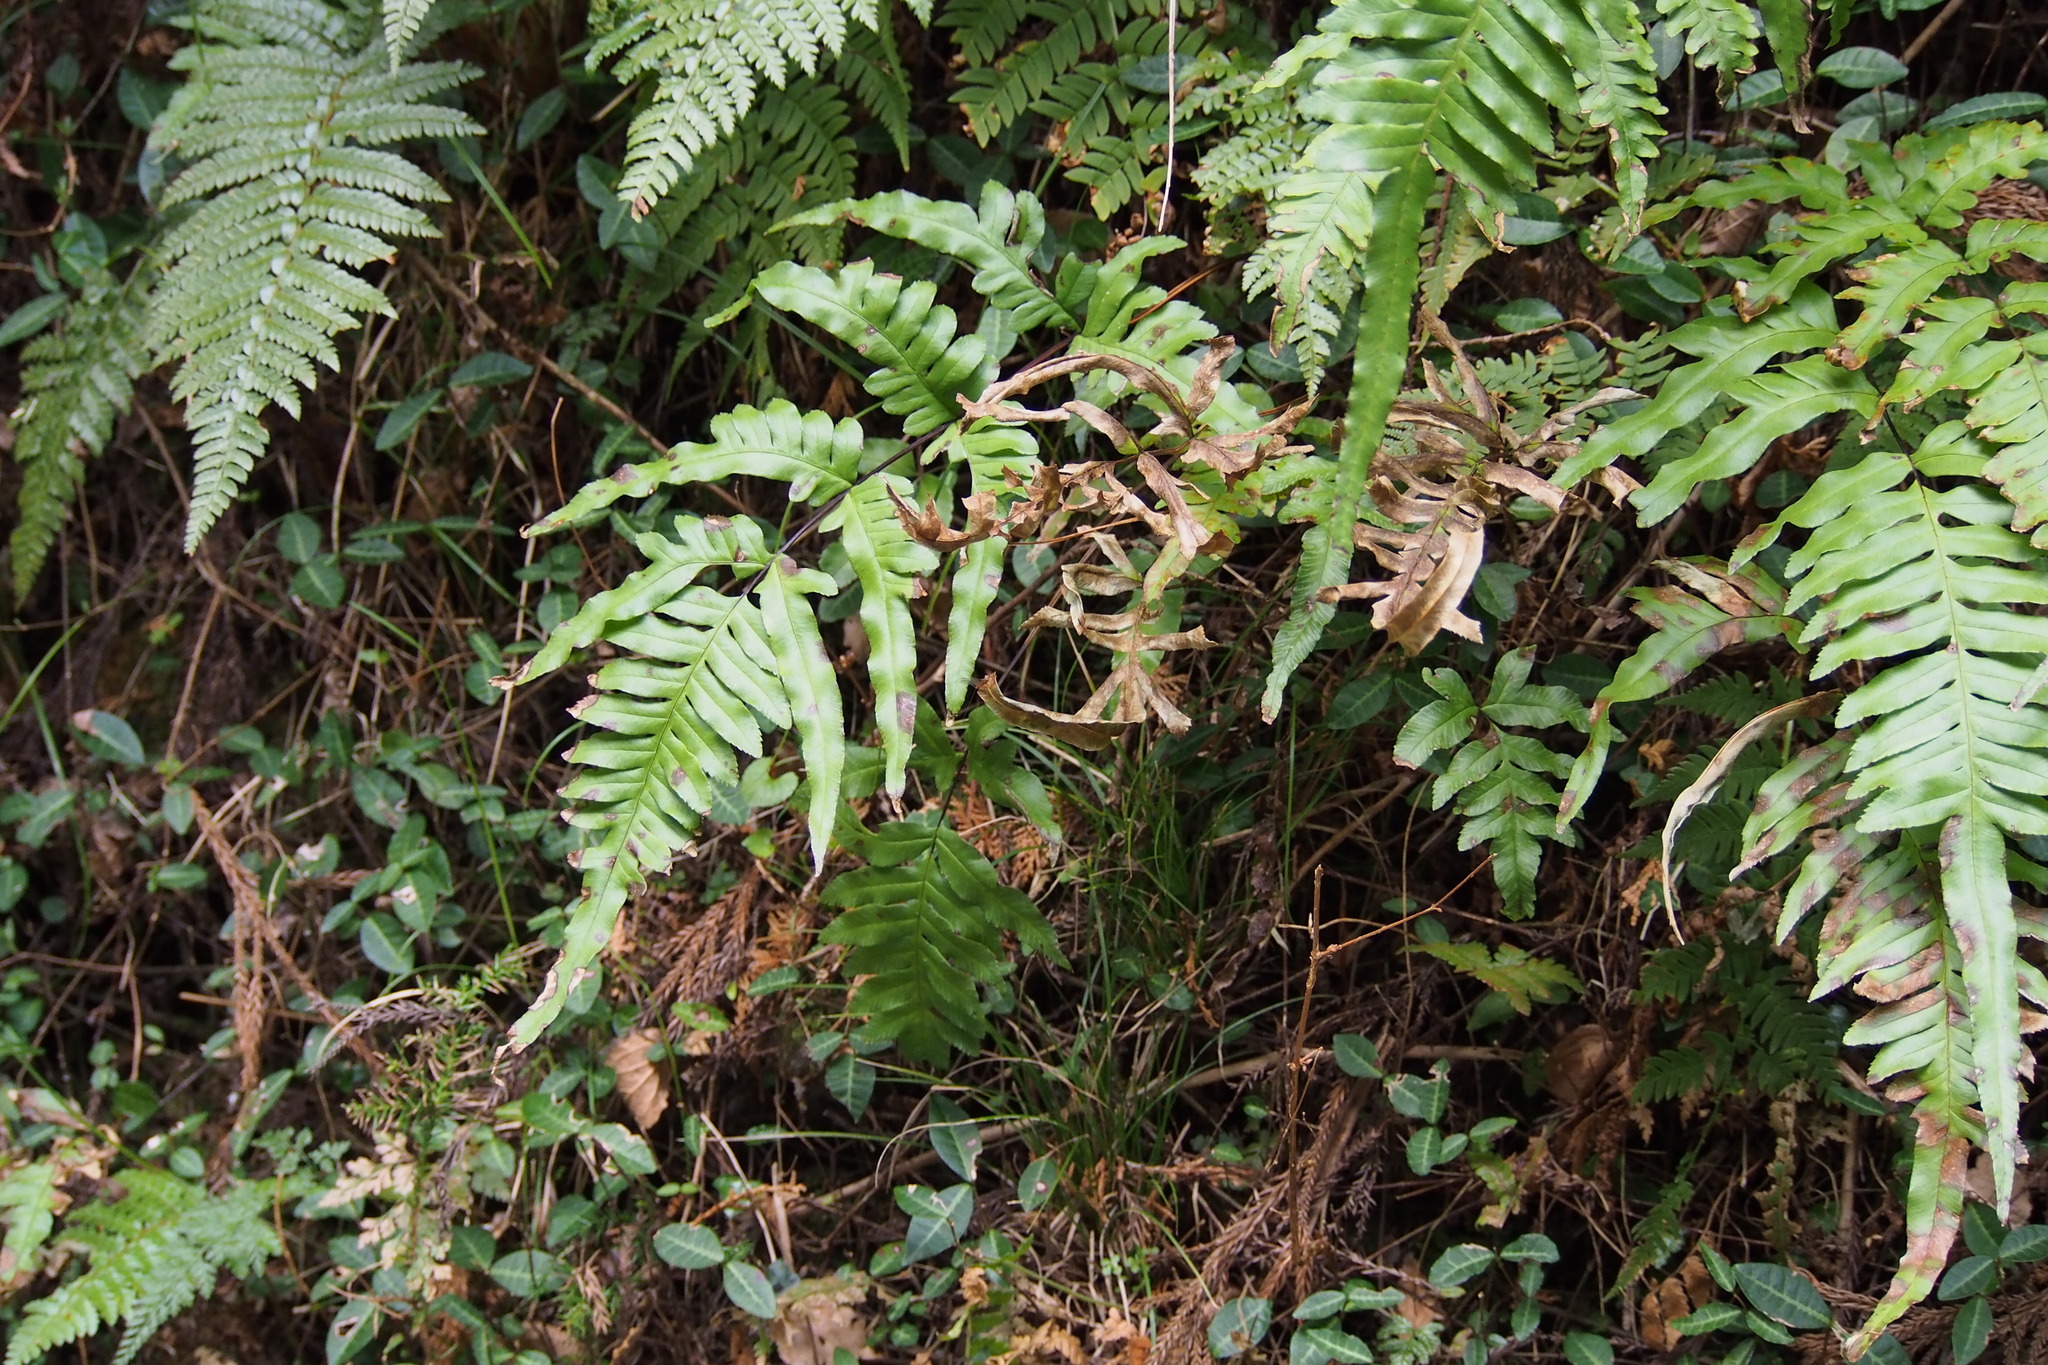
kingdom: Plantae
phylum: Tracheophyta
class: Polypodiopsida
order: Polypodiales
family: Pteridaceae
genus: Pteris
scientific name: Pteris terminalis
